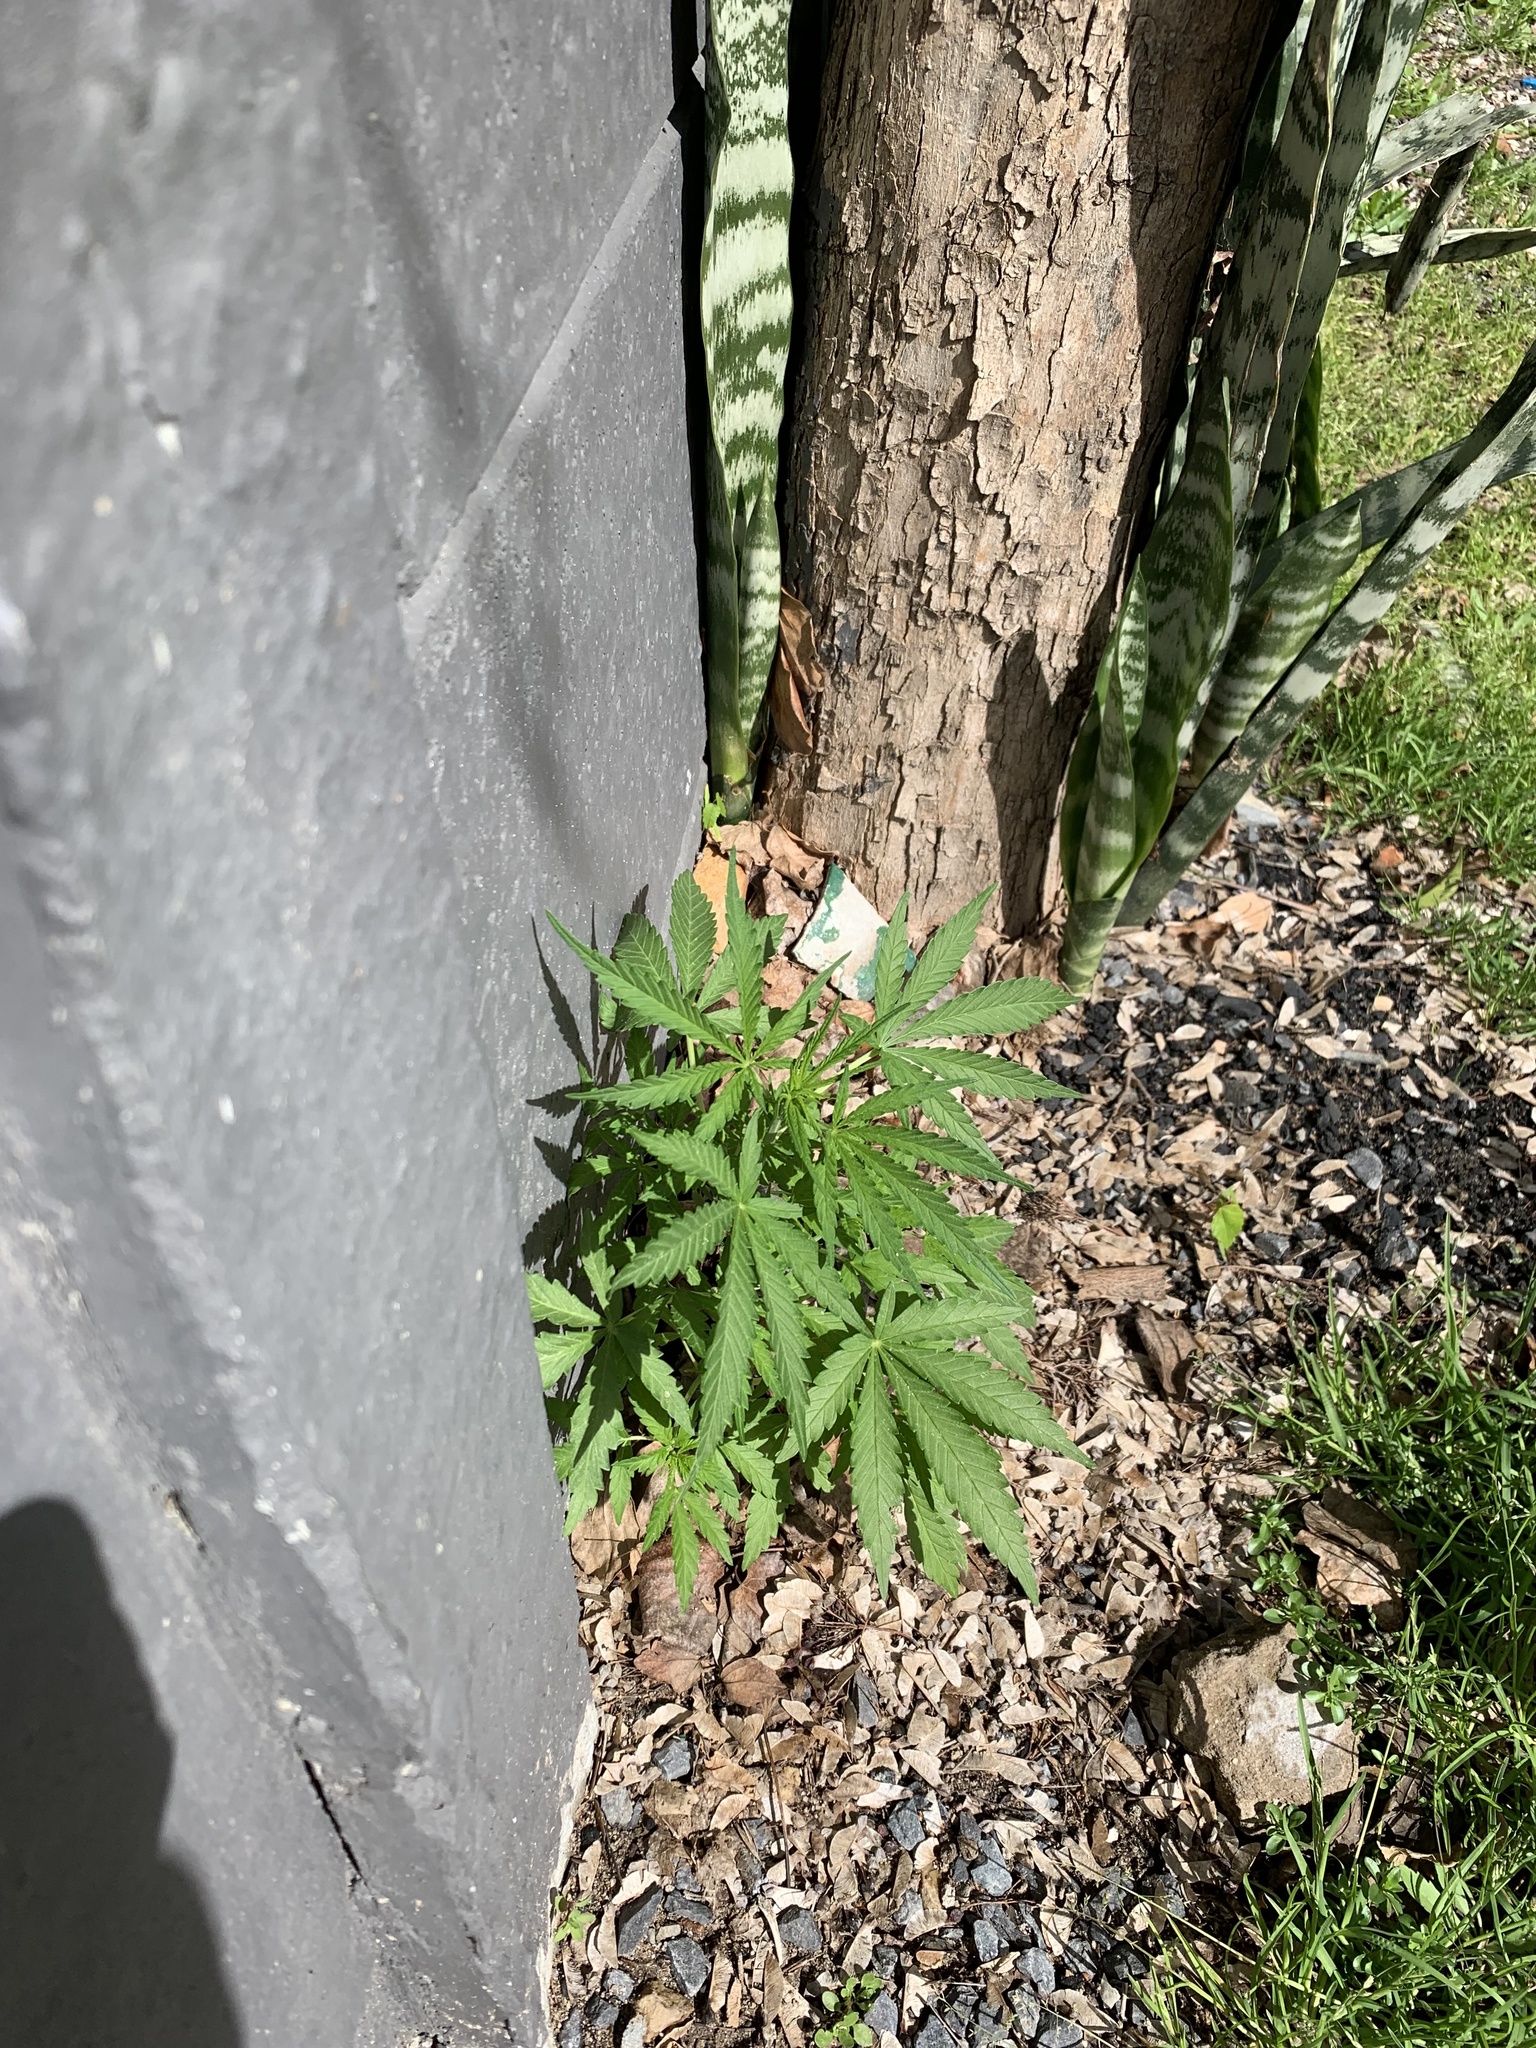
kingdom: Plantae
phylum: Tracheophyta
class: Magnoliopsida
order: Rosales
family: Cannabaceae
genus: Cannabis
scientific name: Cannabis sativa
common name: Hemp
